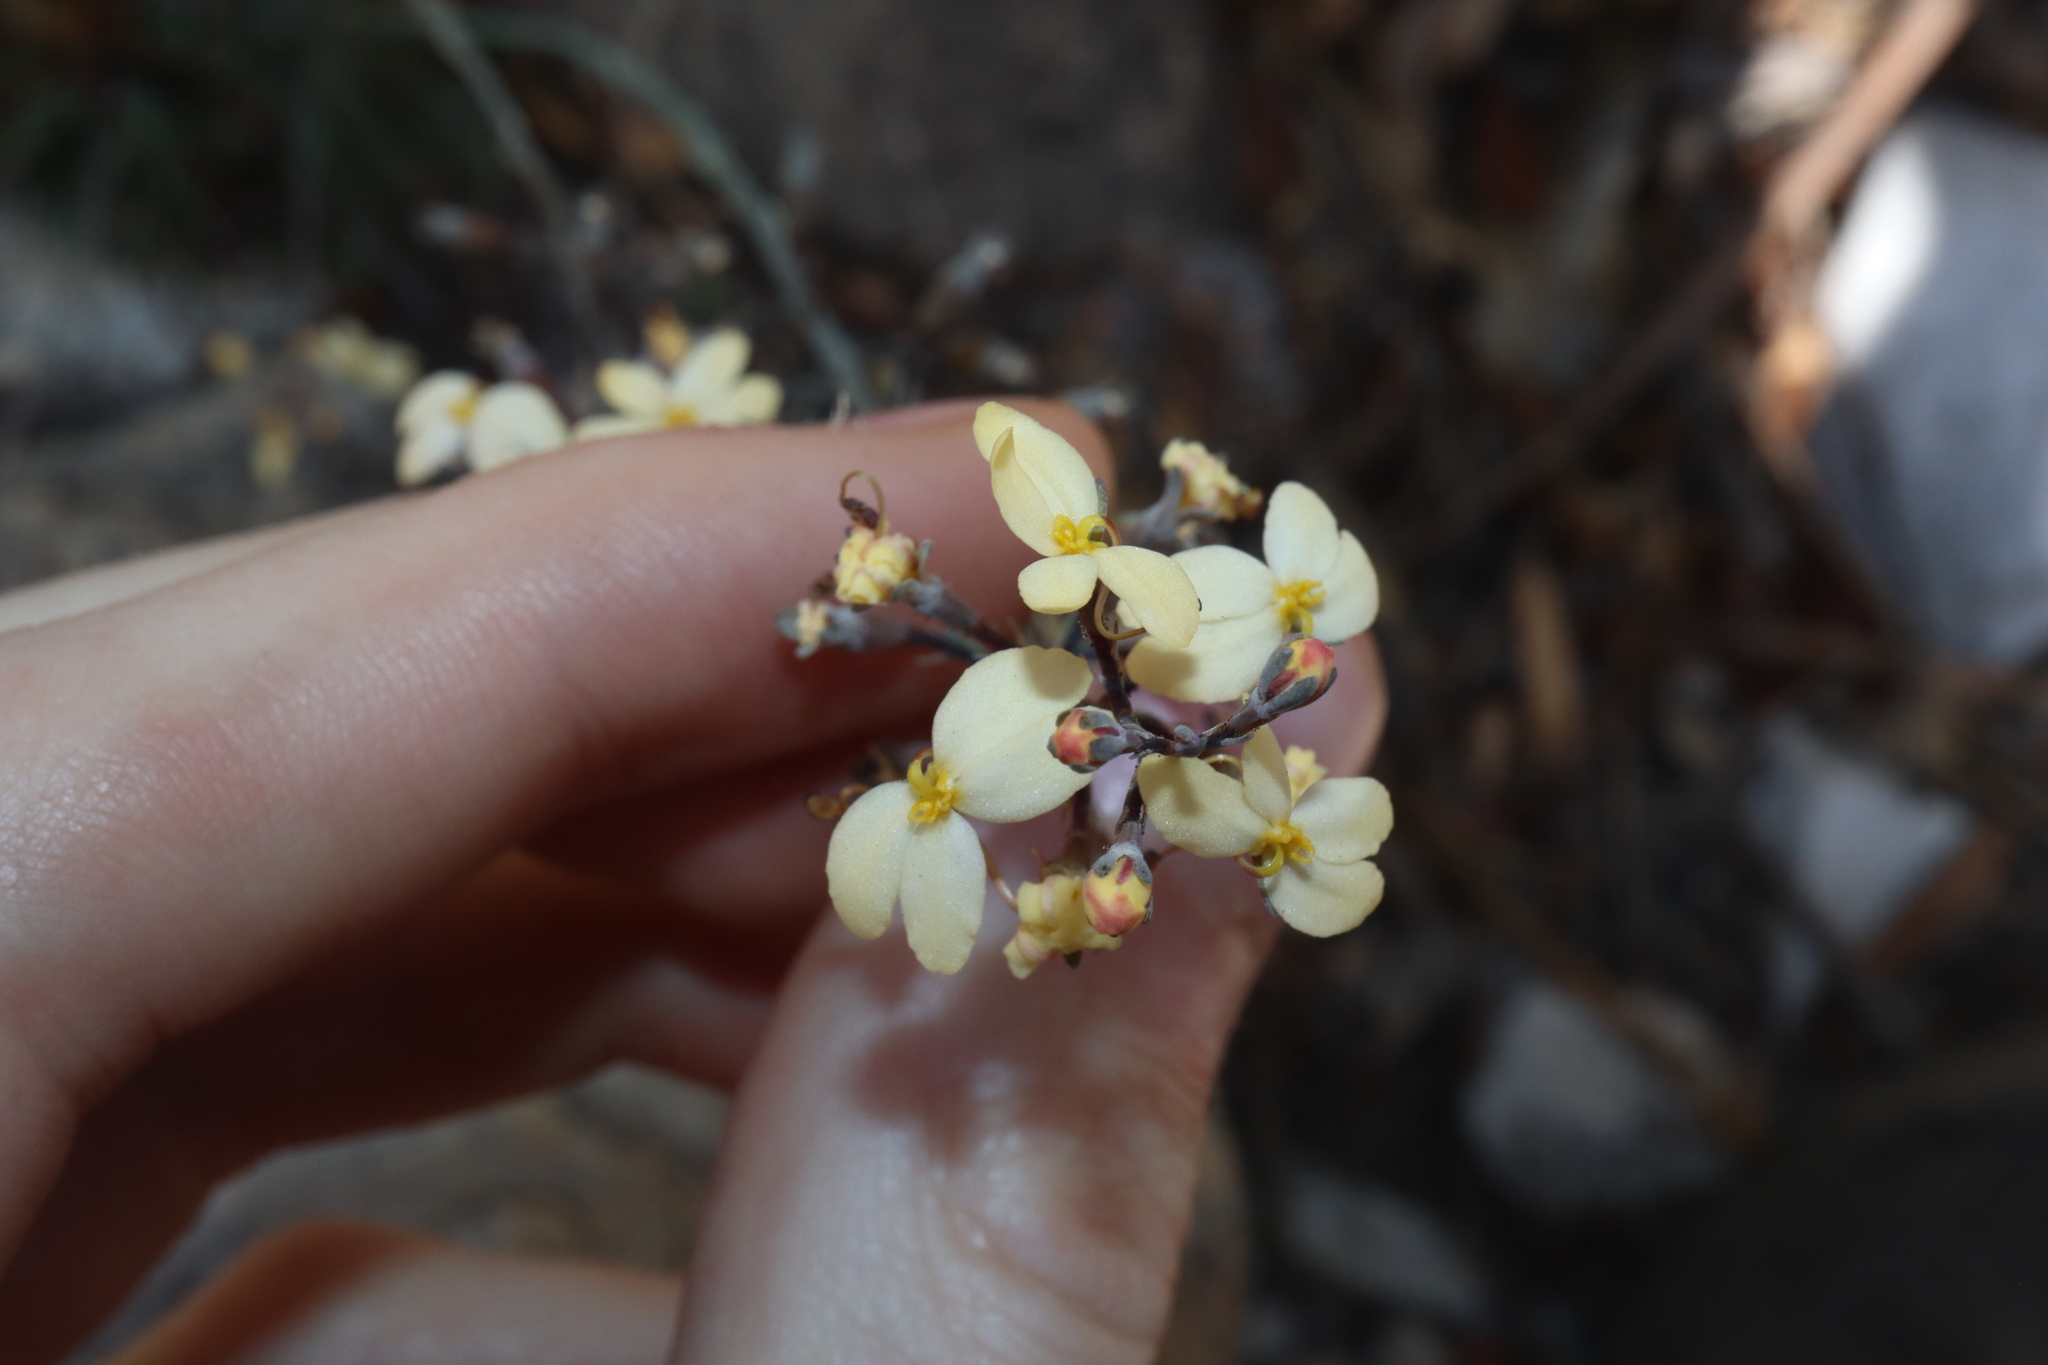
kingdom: Plantae
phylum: Tracheophyta
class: Magnoliopsida
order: Asterales
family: Stylidiaceae
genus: Stylidium
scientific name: Stylidium clavatum
